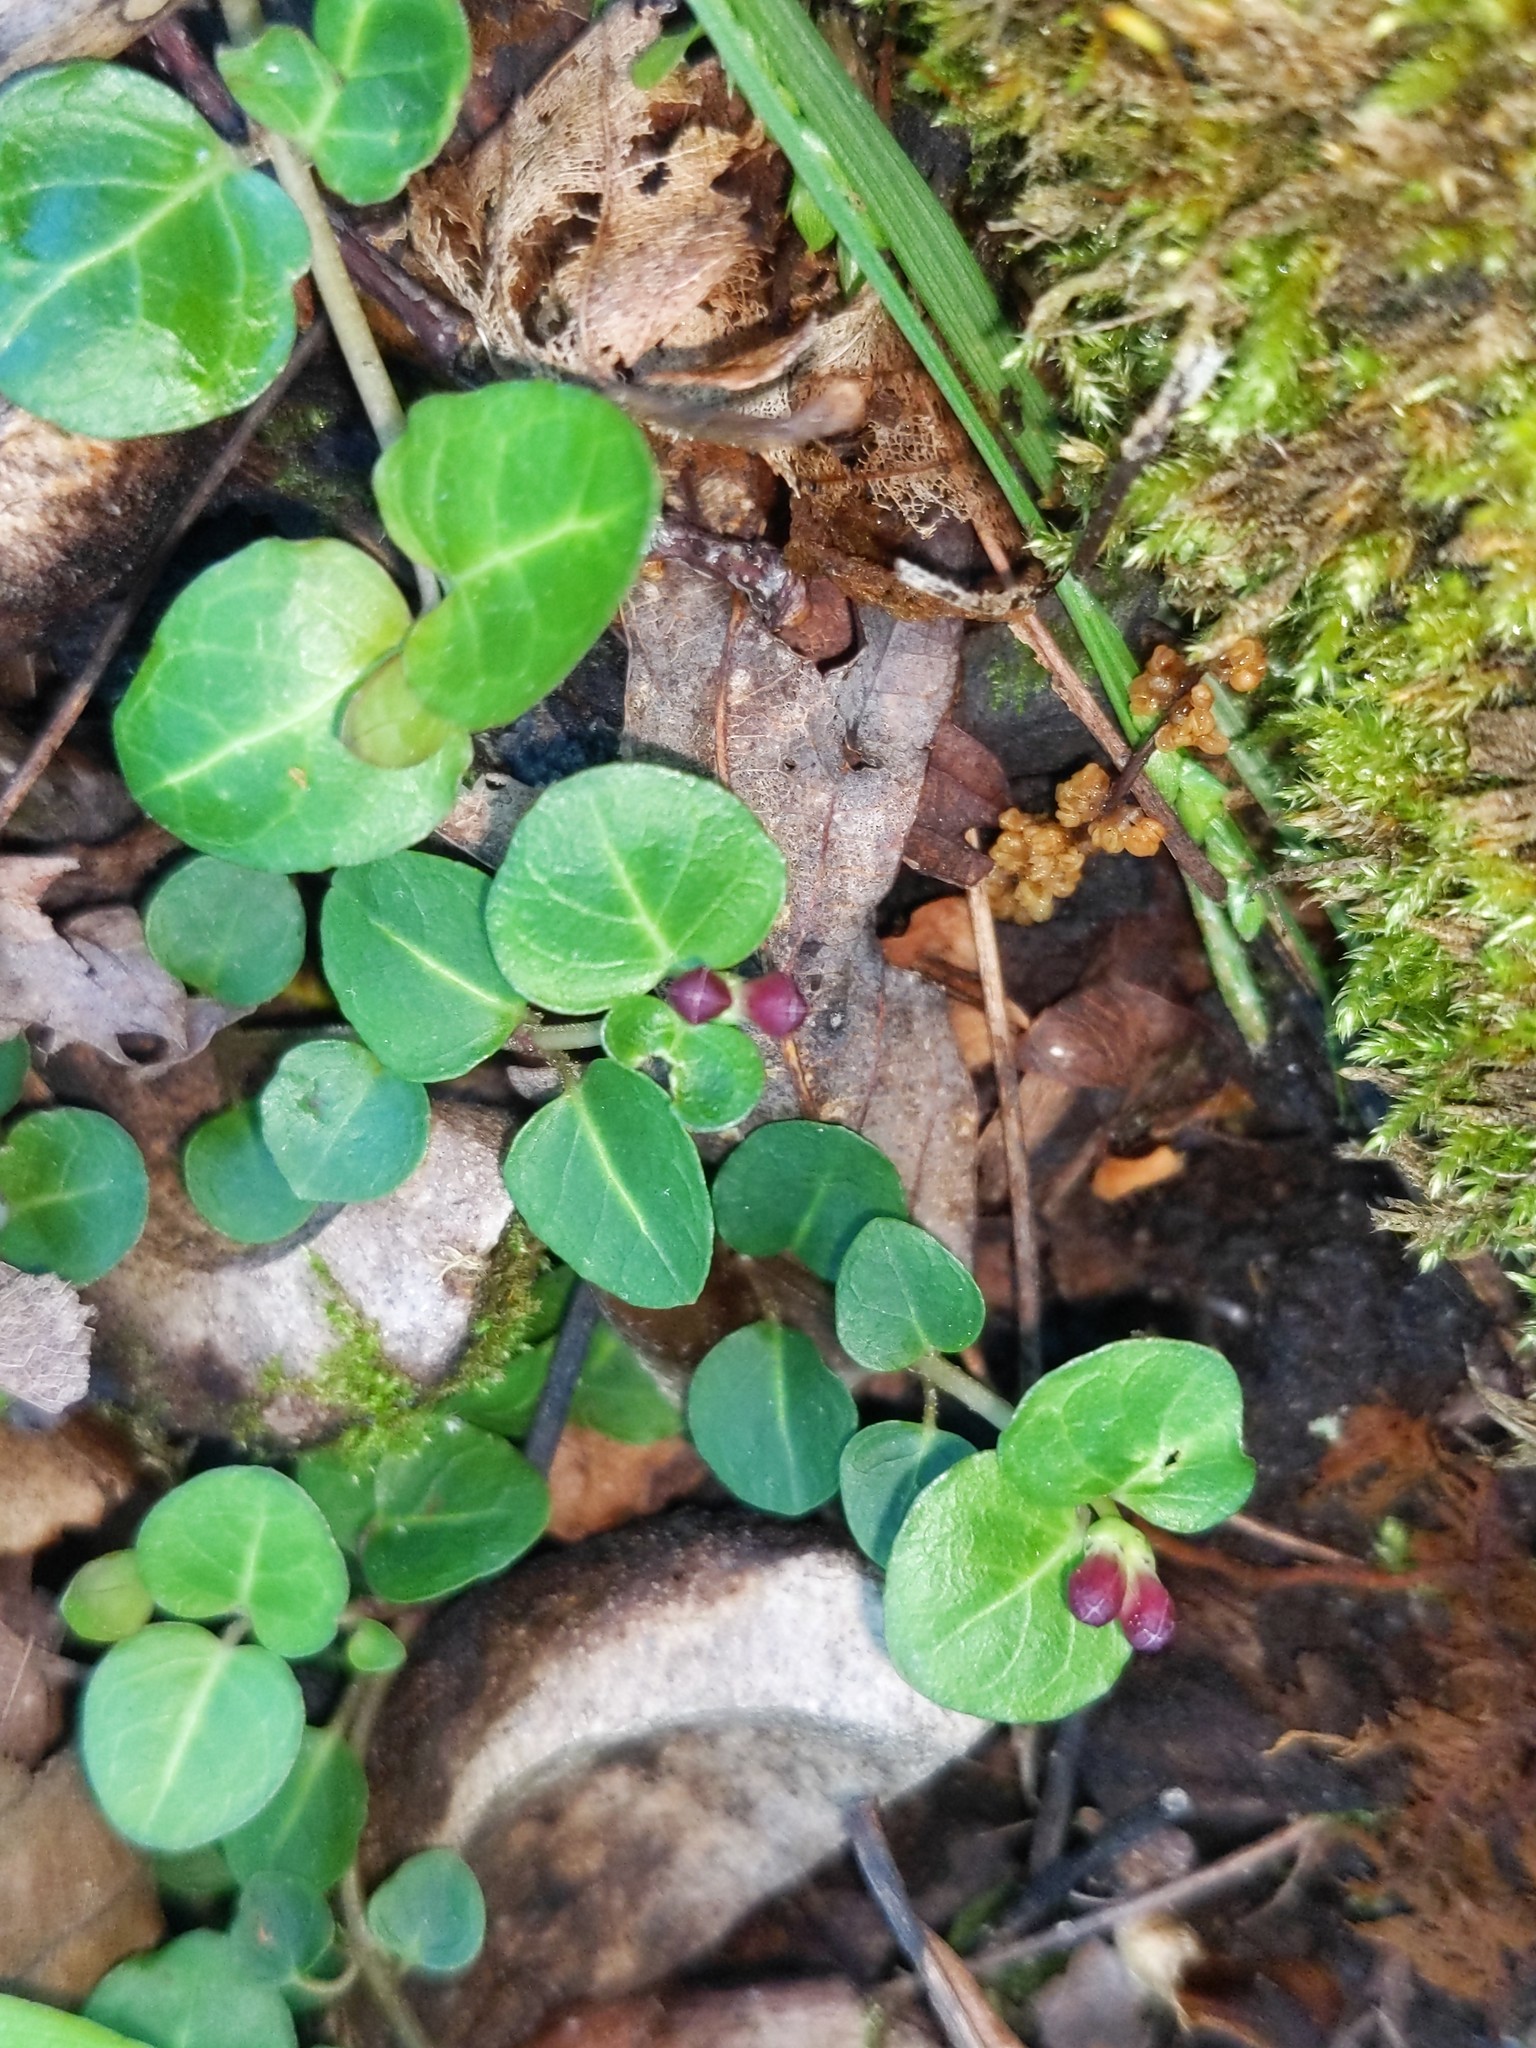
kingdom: Plantae
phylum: Tracheophyta
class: Magnoliopsida
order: Gentianales
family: Rubiaceae
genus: Mitchella
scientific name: Mitchella repens
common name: Partridge-berry
